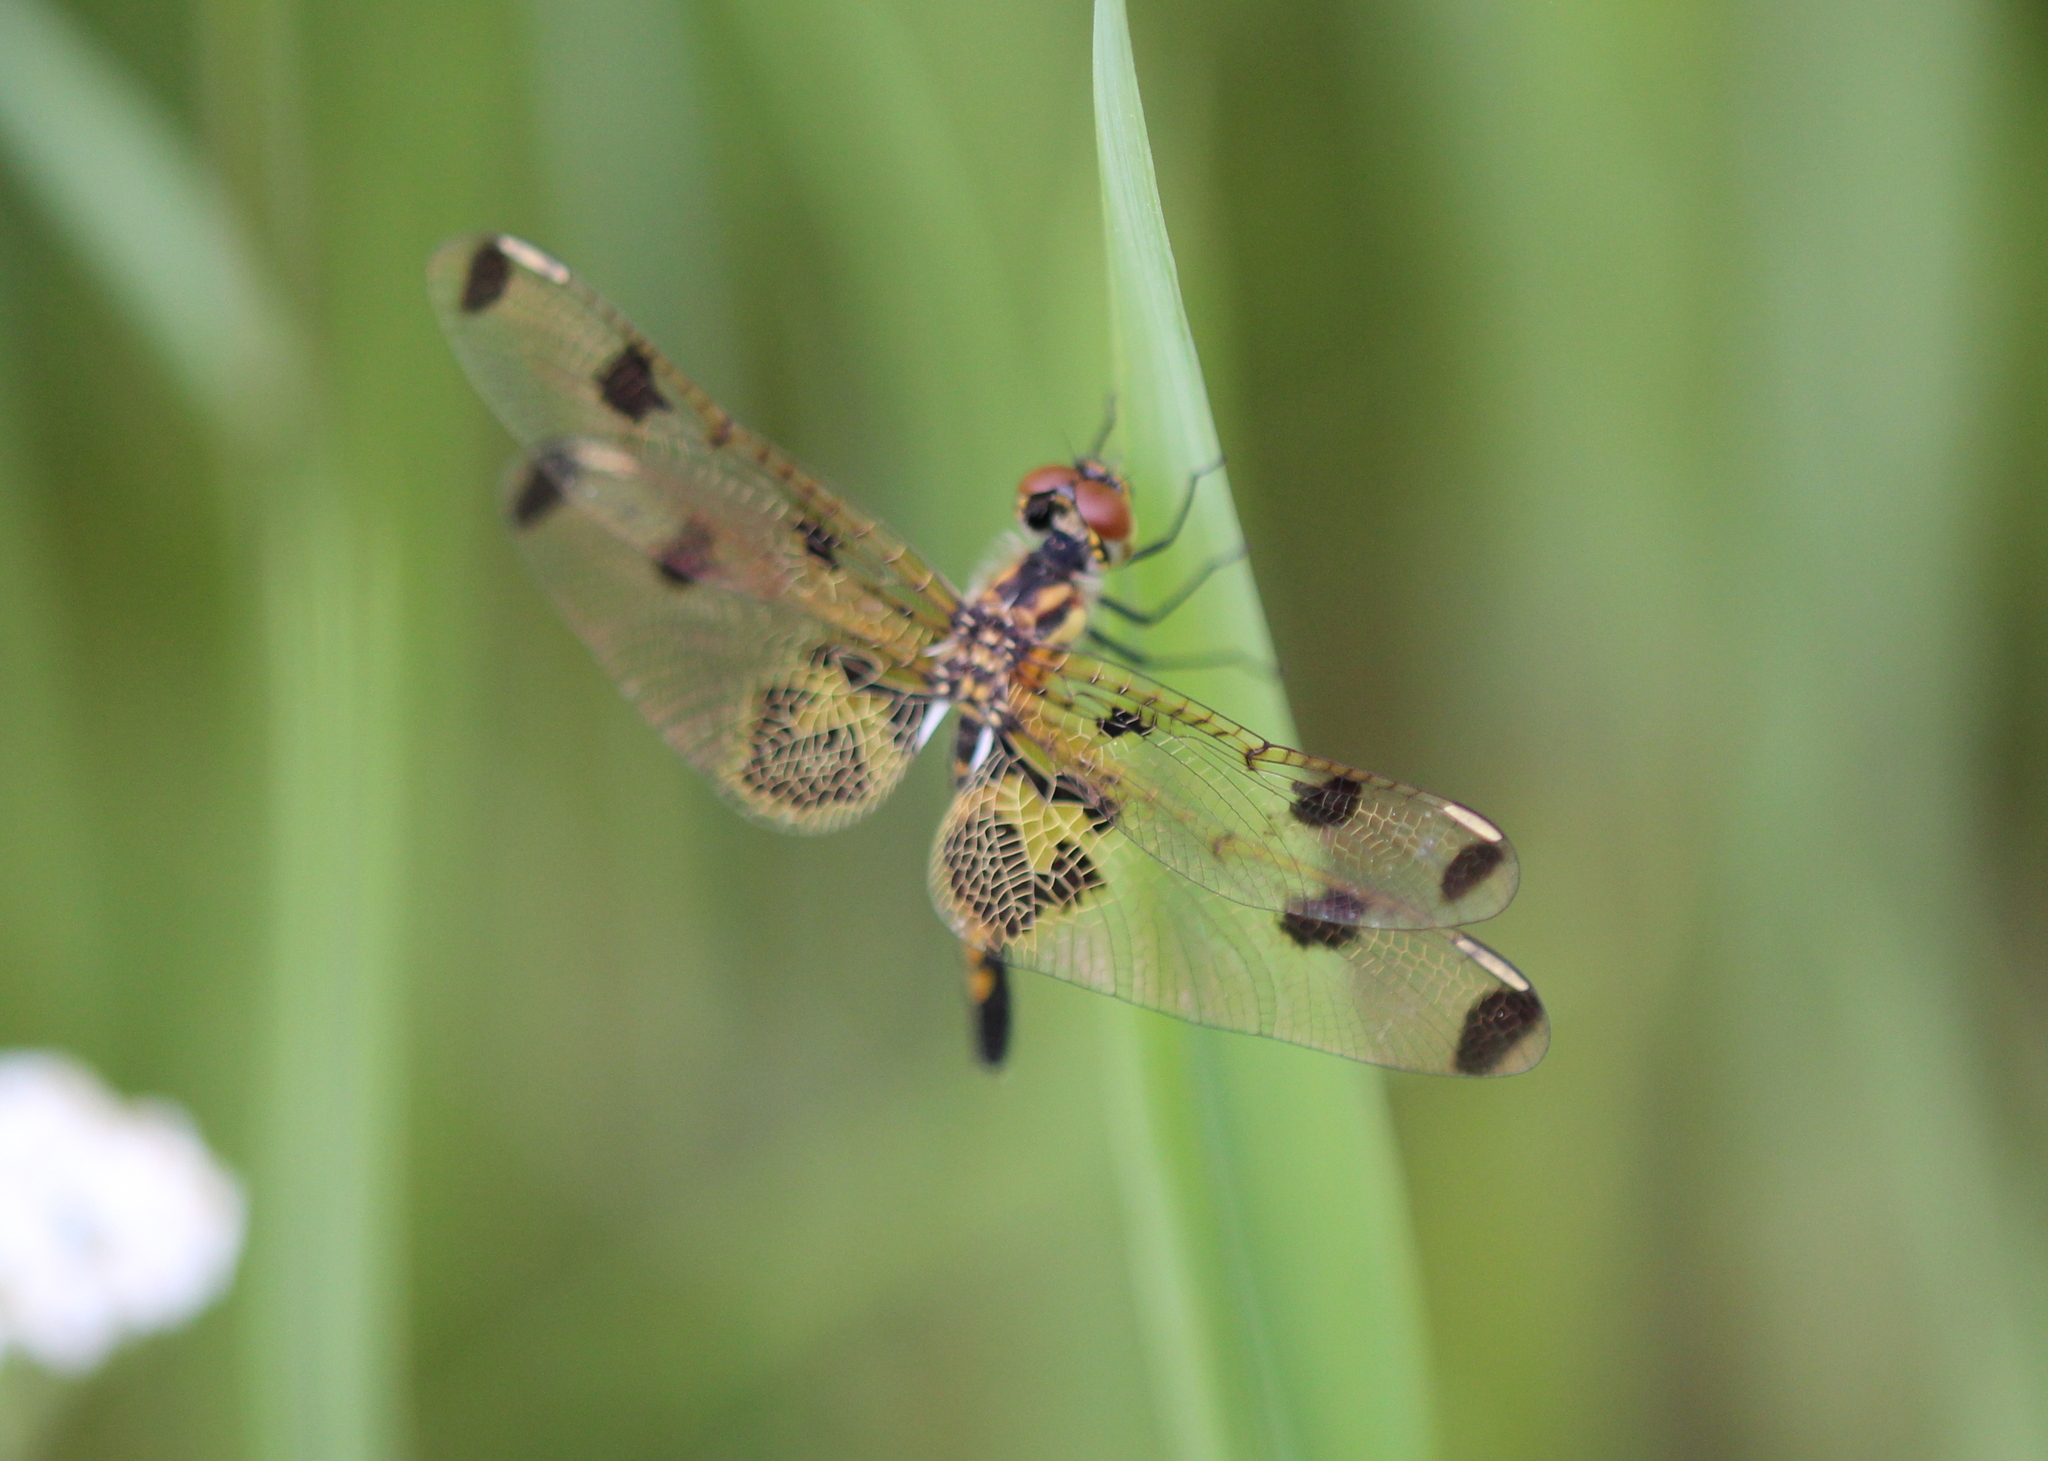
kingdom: Animalia
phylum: Arthropoda
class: Insecta
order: Odonata
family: Libellulidae
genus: Celithemis
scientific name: Celithemis elisa
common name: Calico pennant
